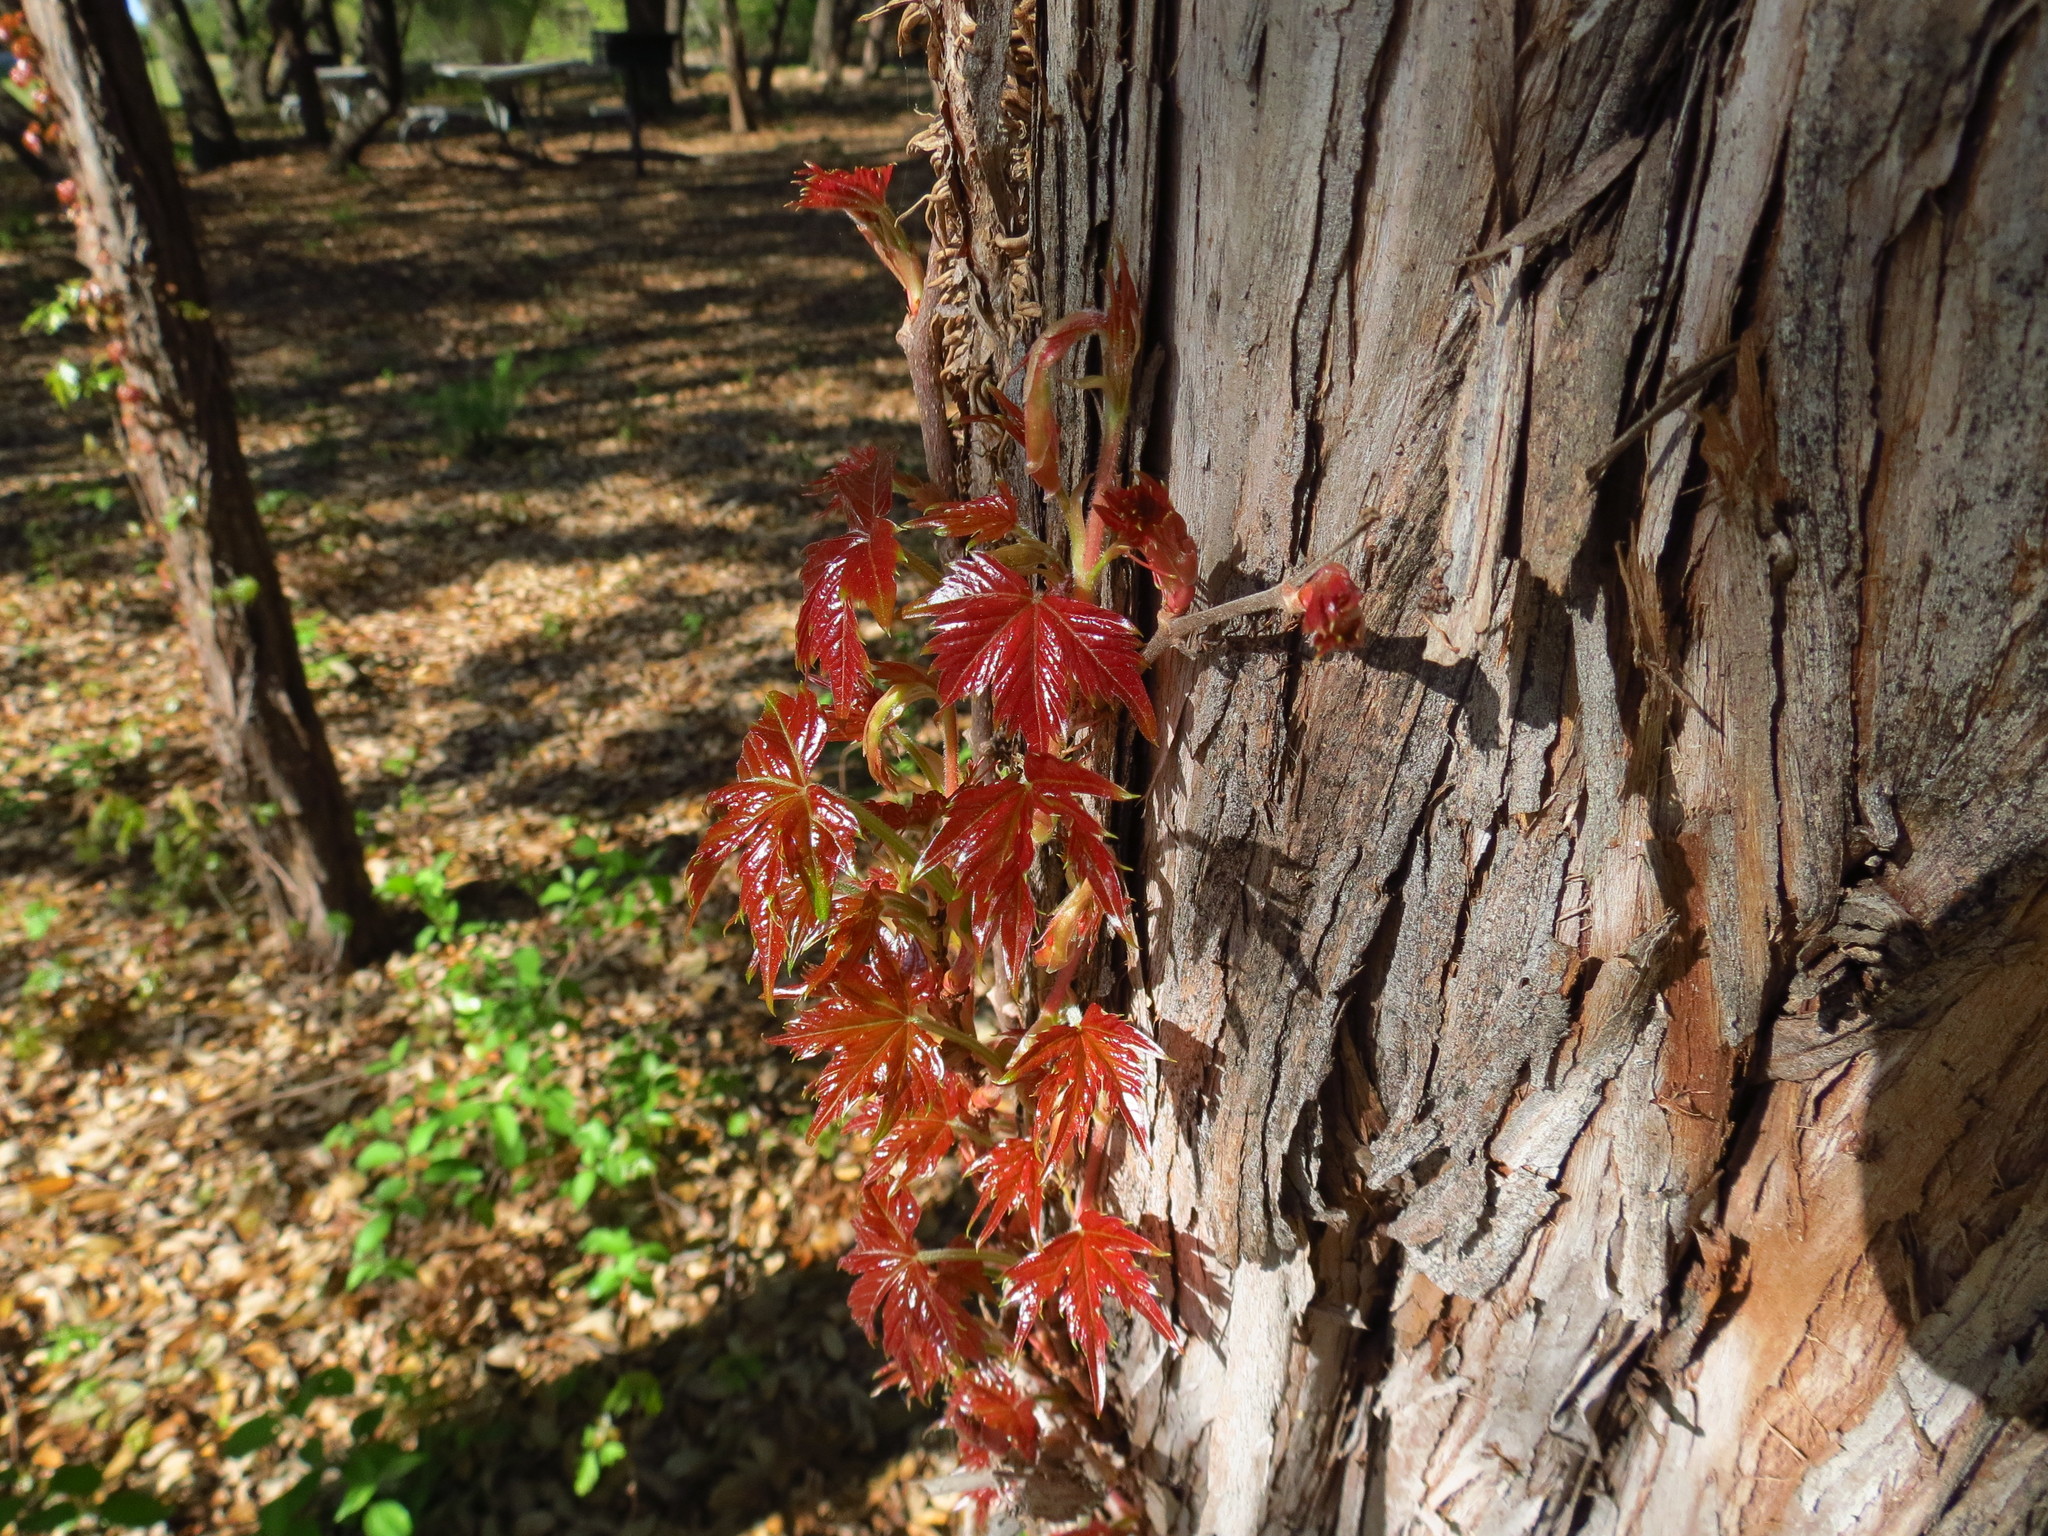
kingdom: Plantae
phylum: Tracheophyta
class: Magnoliopsida
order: Vitales
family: Vitaceae
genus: Parthenocissus
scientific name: Parthenocissus quinquefolia
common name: Virginia-creeper
